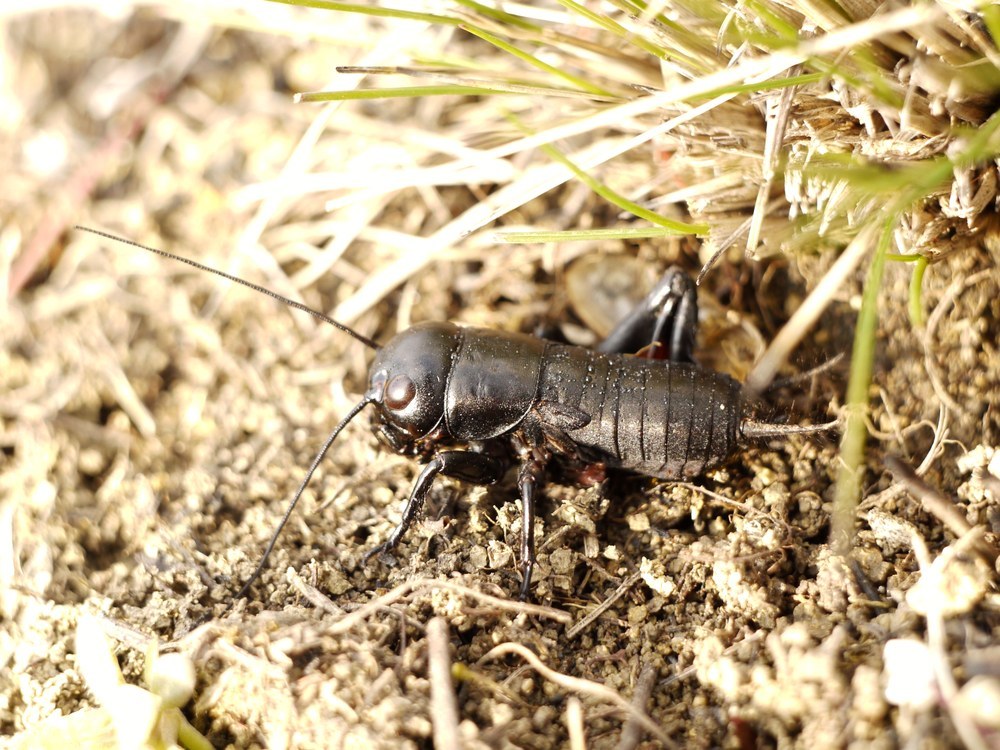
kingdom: Animalia
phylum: Arthropoda
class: Insecta
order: Orthoptera
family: Gryllidae
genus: Gryllus
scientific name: Gryllus campestris
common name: Field cricket
